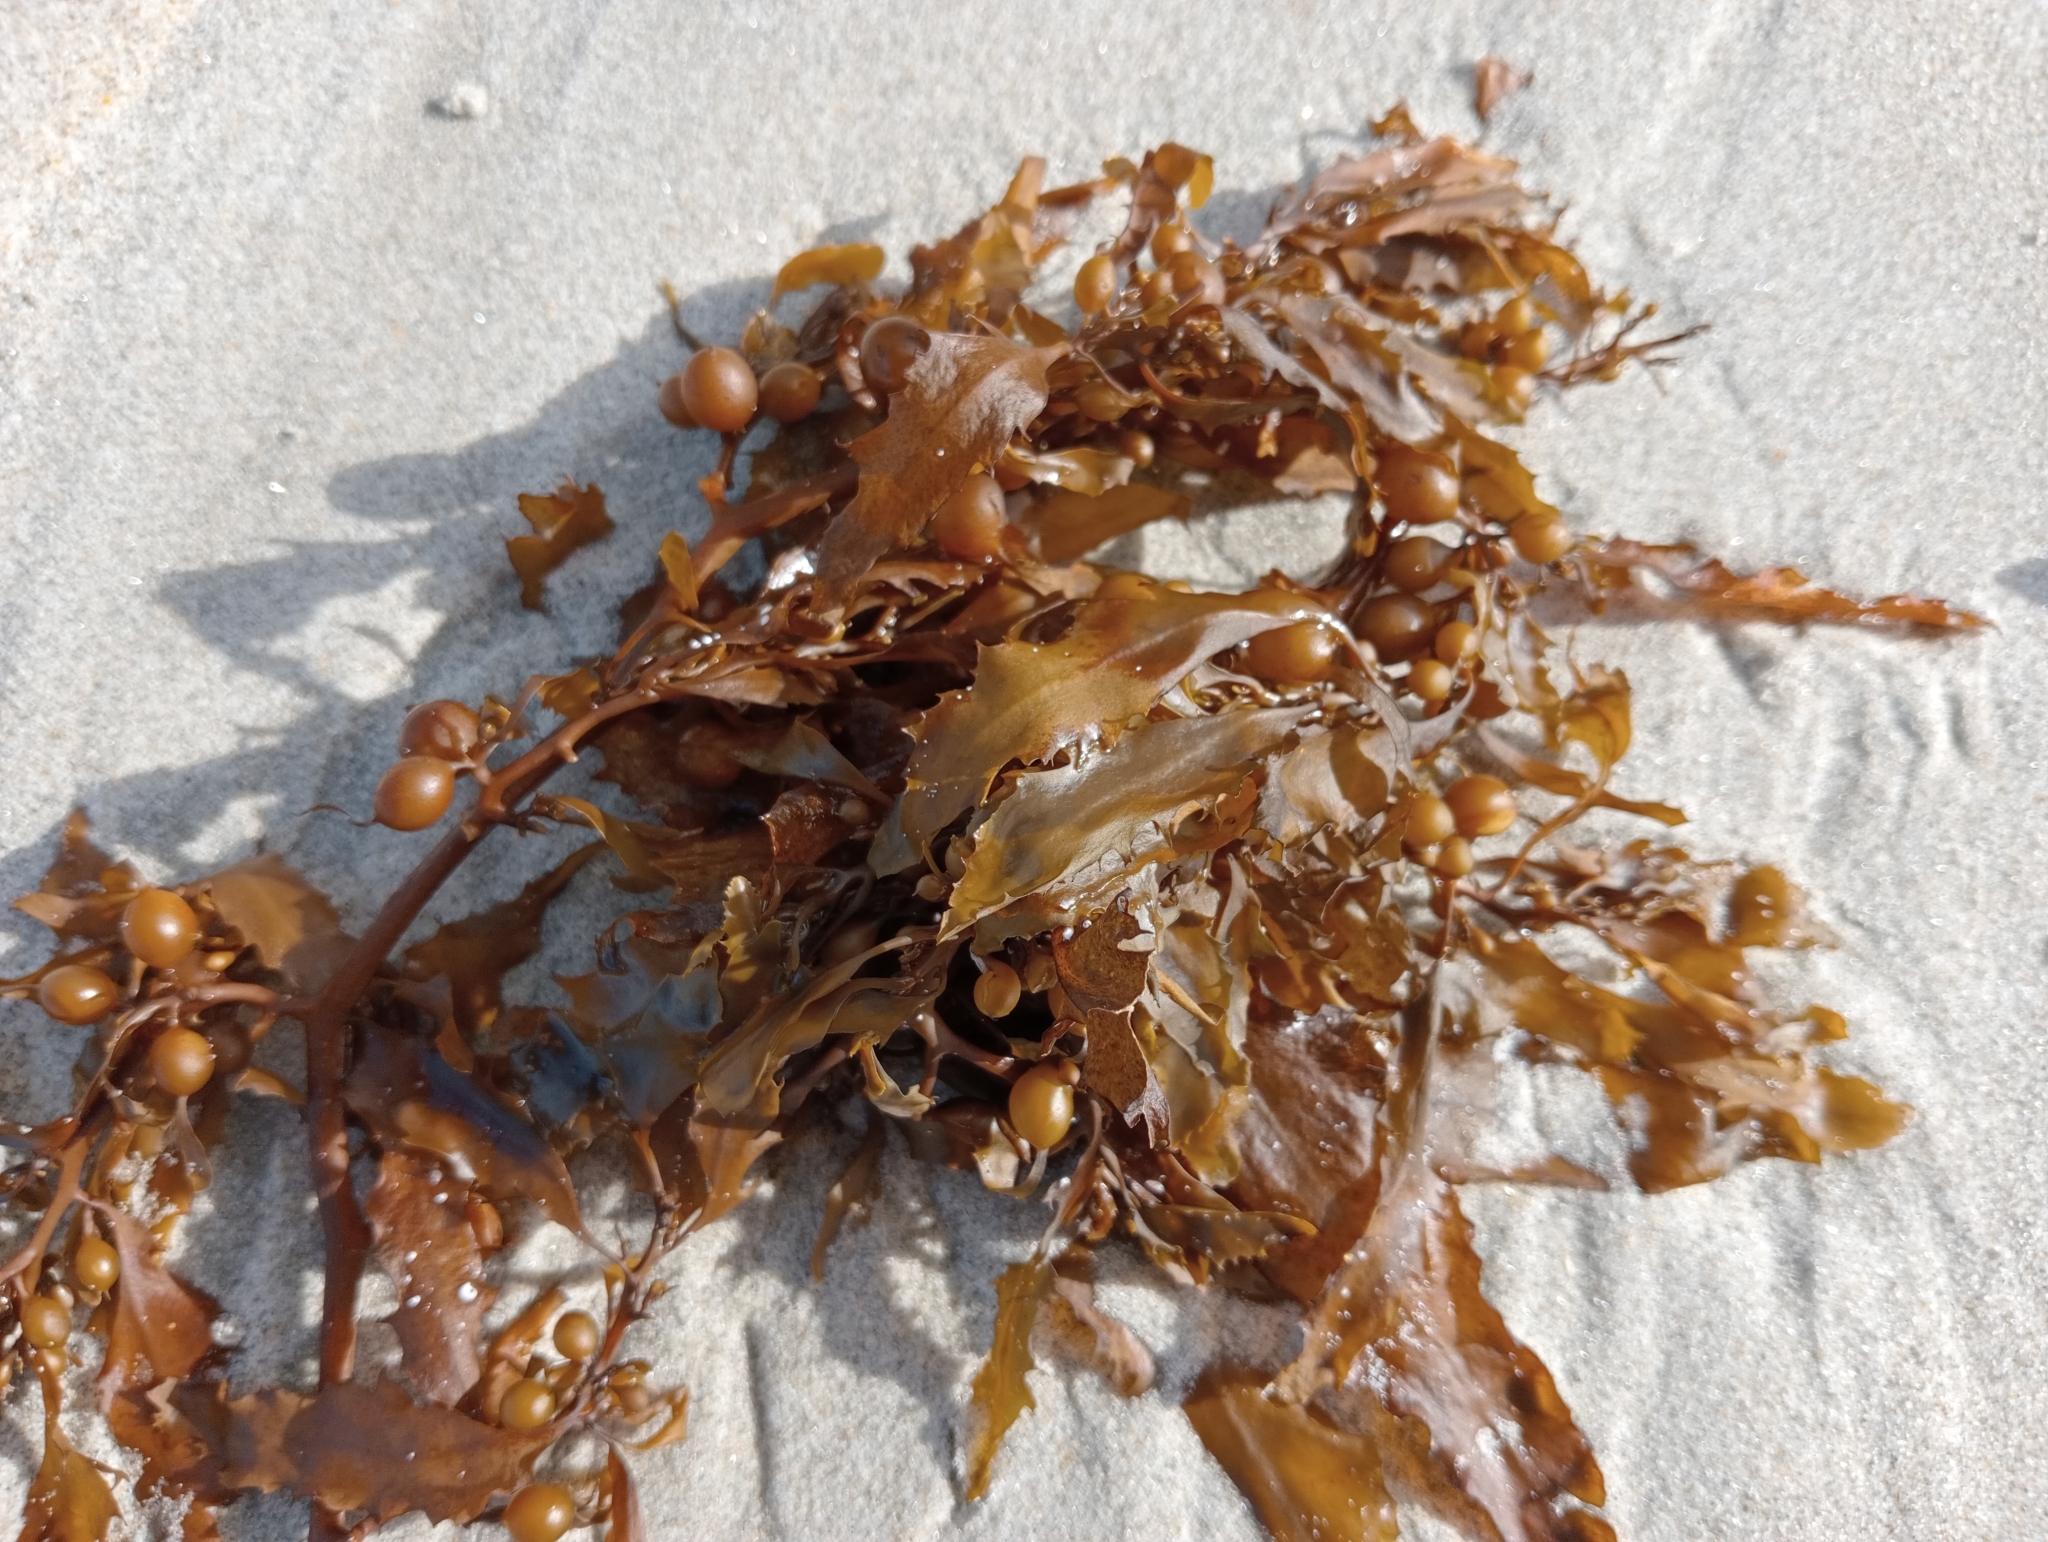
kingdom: Chromista
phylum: Ochrophyta
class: Phaeophyceae
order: Fucales
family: Sargassaceae
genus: Sargassum
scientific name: Sargassum sinclairii
